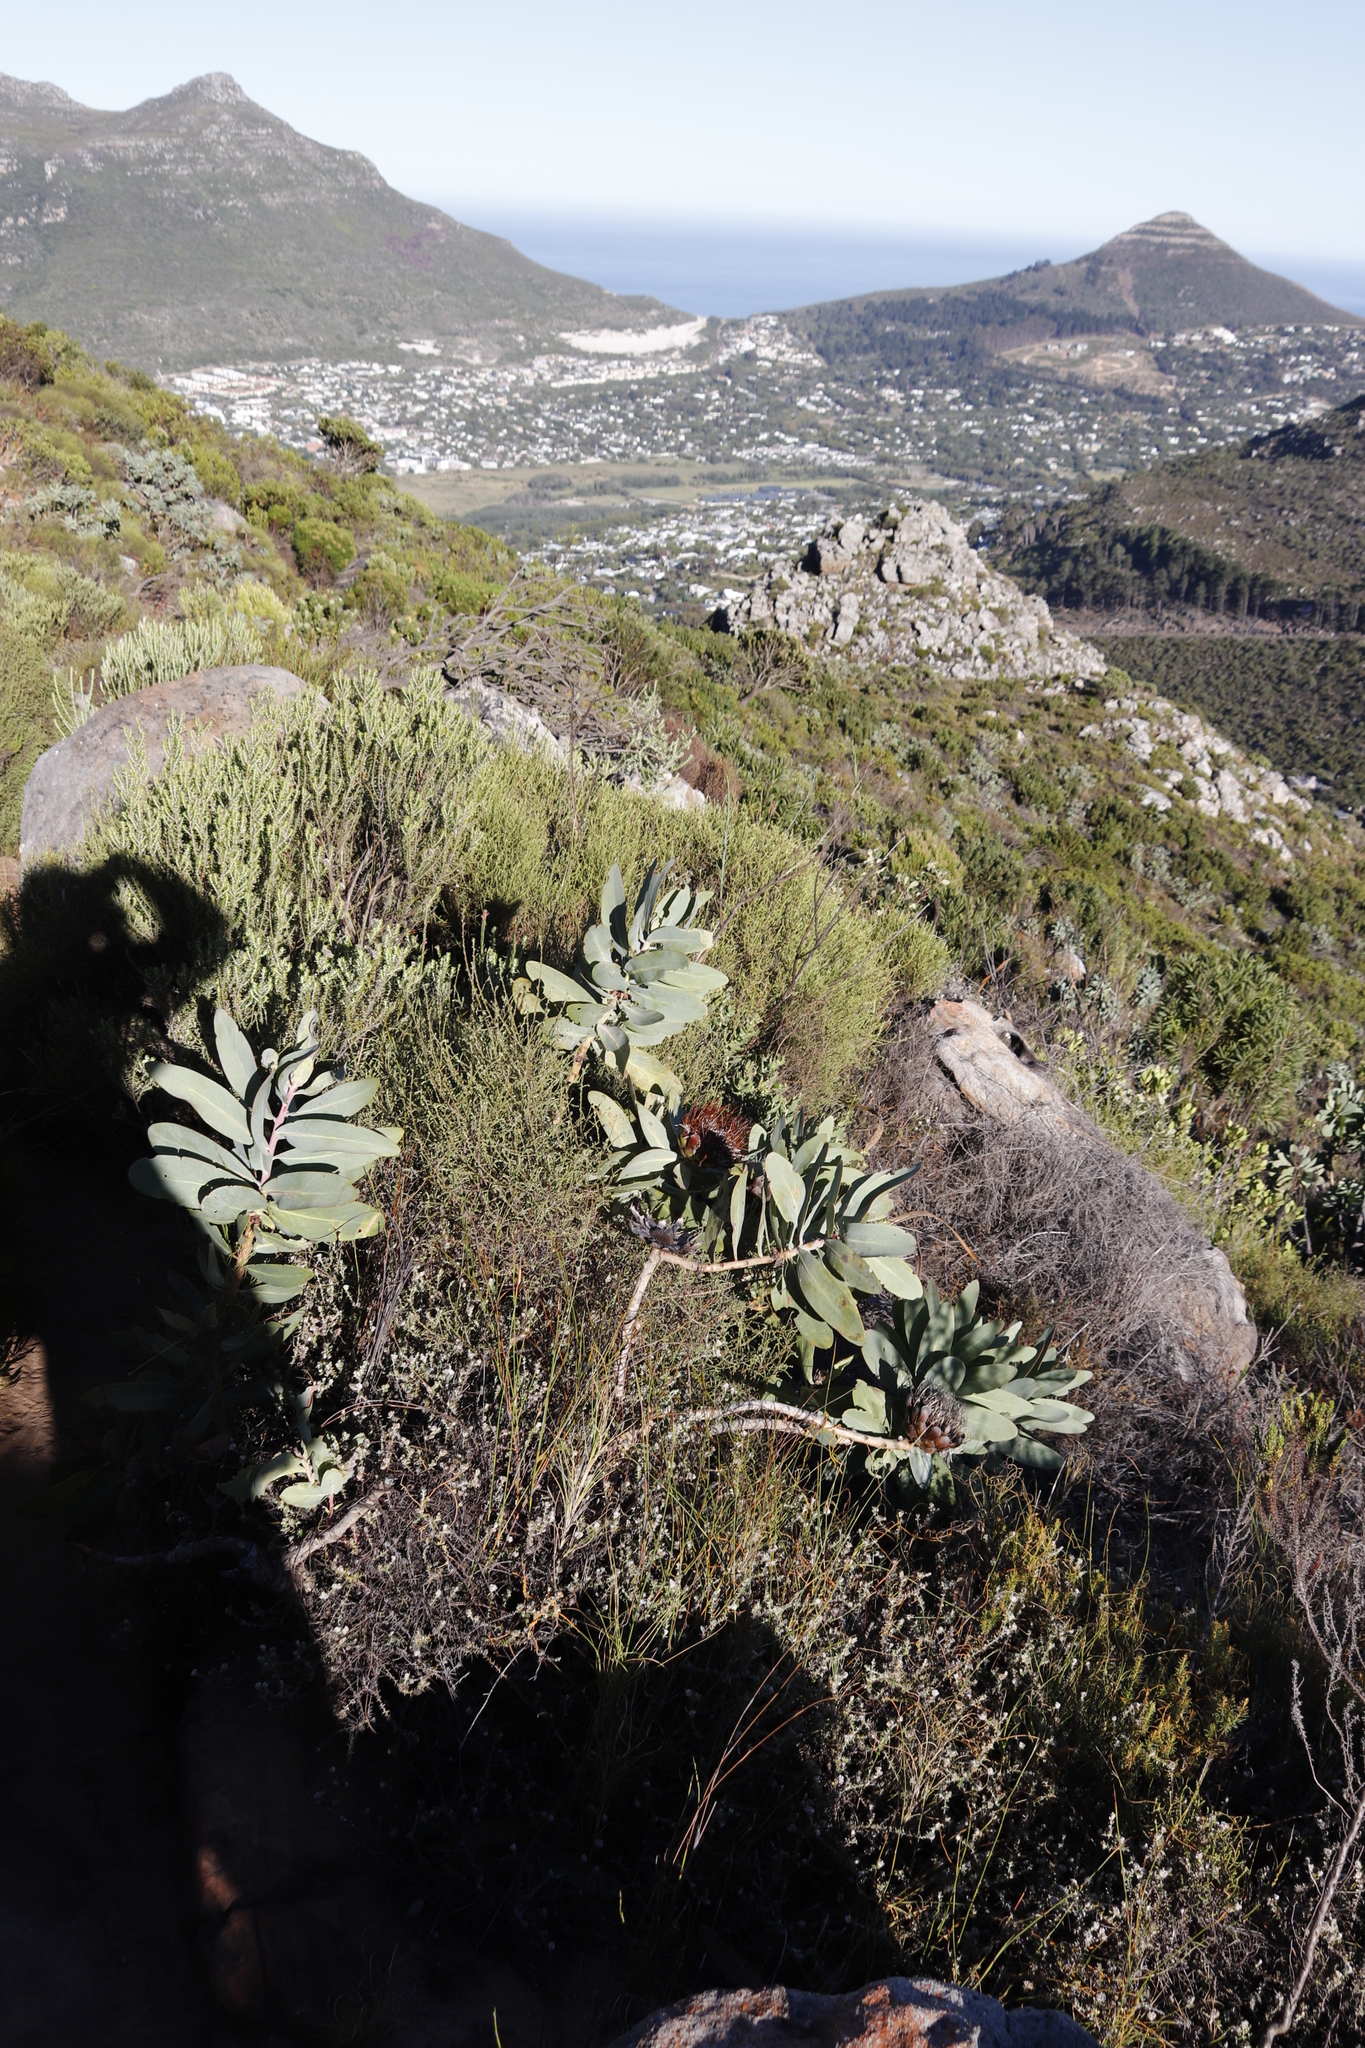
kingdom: Plantae
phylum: Tracheophyta
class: Magnoliopsida
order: Proteales
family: Proteaceae
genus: Protea
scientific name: Protea nitida
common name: Tree protea
